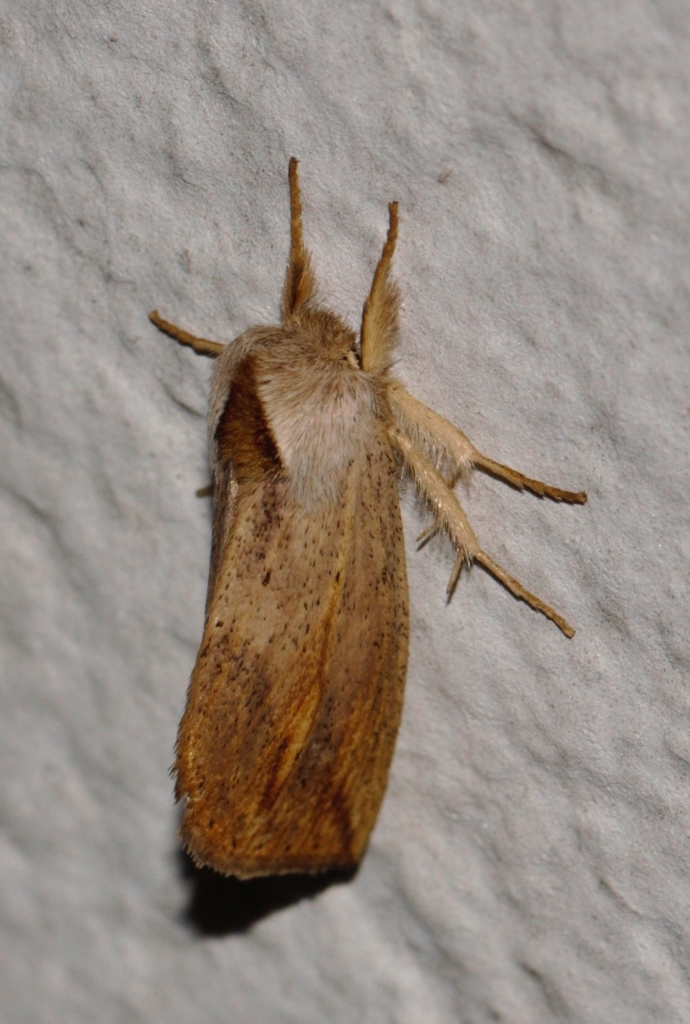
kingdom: Animalia
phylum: Arthropoda
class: Insecta
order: Lepidoptera
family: Notodontidae
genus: Polienus
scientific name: Polienus fuscata
